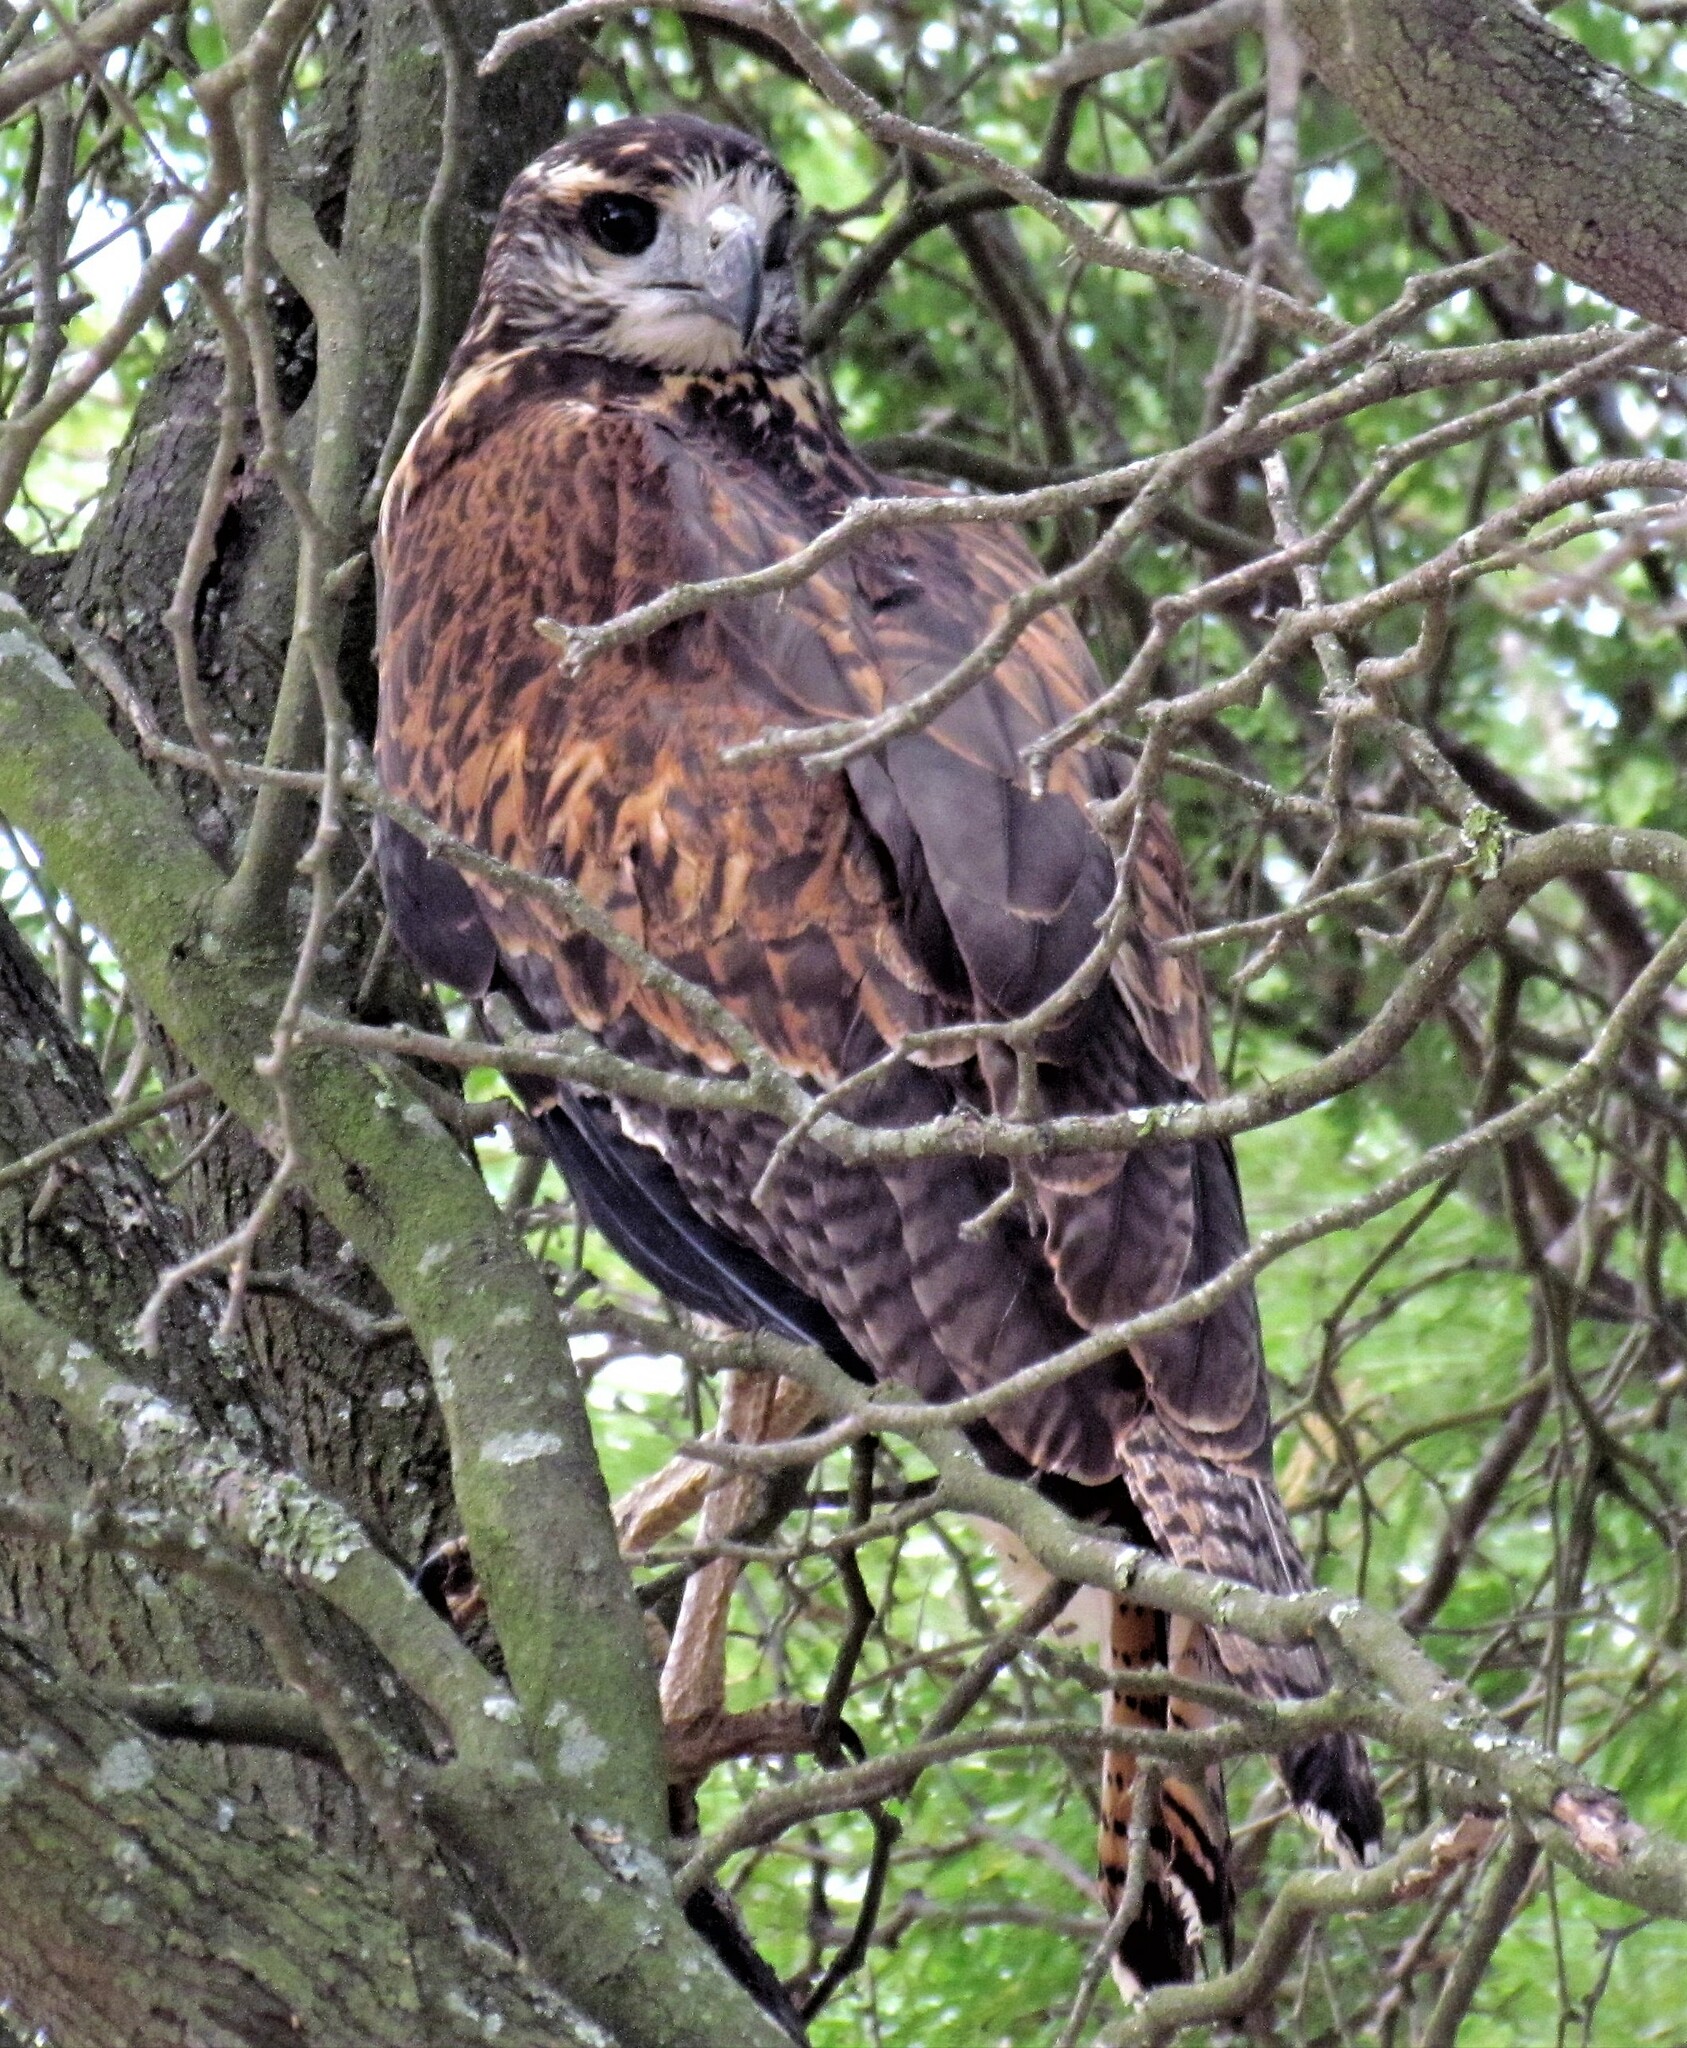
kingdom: Animalia
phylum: Chordata
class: Aves
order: Accipitriformes
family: Accipitridae
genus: Buteogallus
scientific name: Buteogallus urubitinga
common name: Great black hawk
